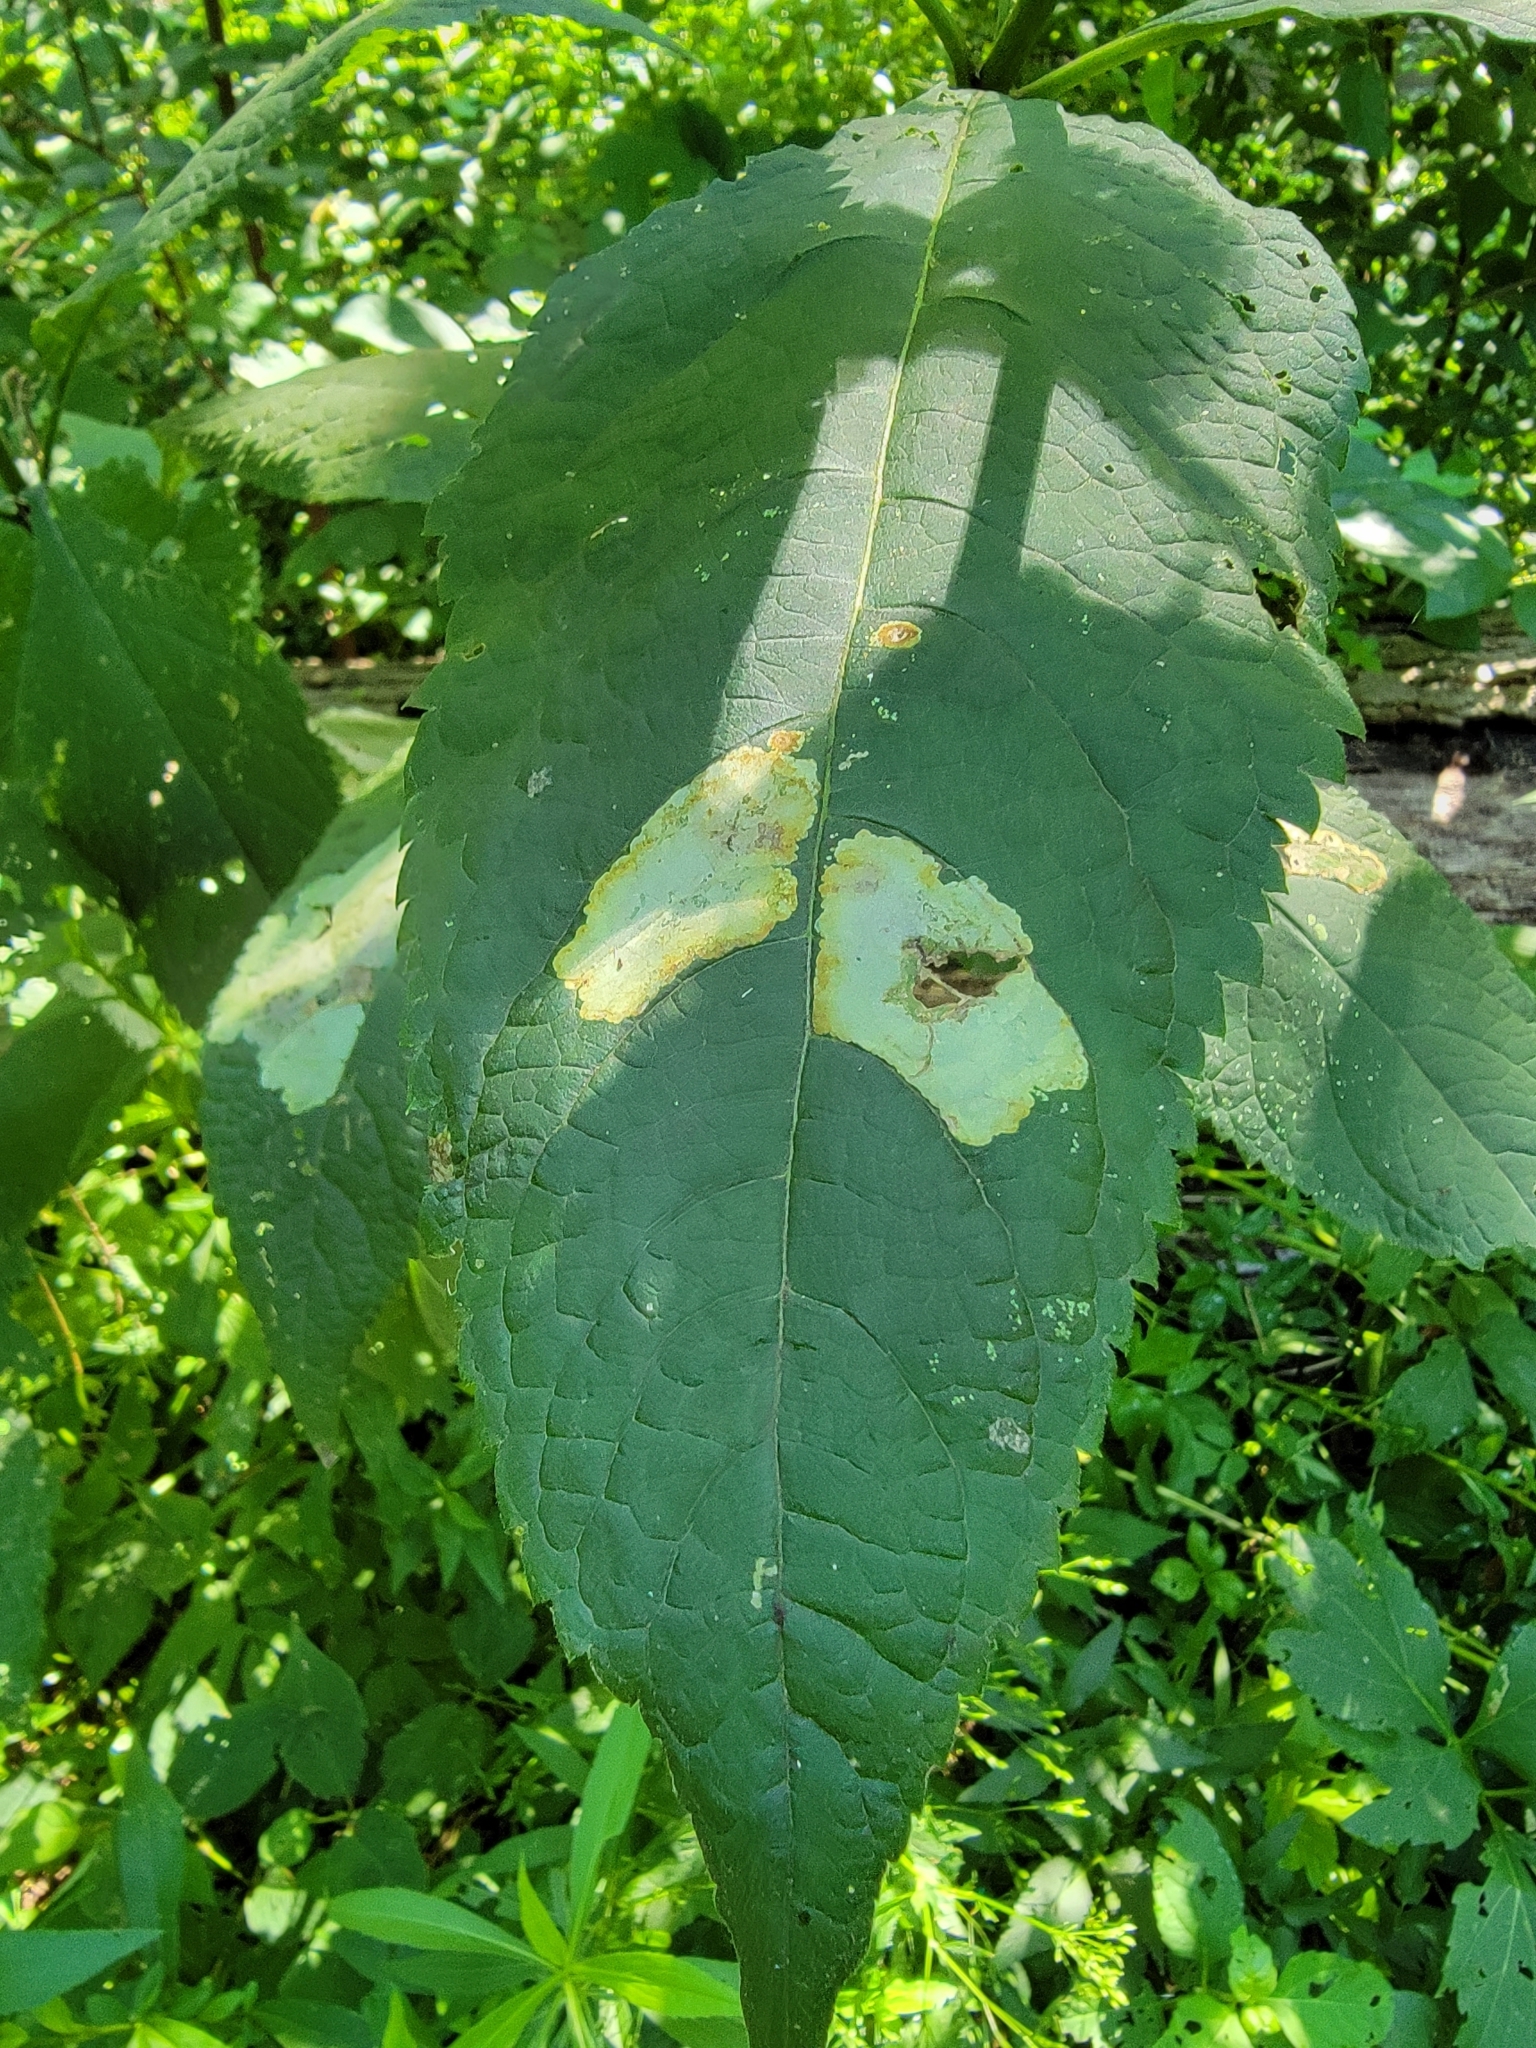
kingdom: Animalia
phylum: Arthropoda
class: Insecta
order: Diptera
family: Agromyzidae
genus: Calycomyza
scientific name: Calycomyza flavinotum
